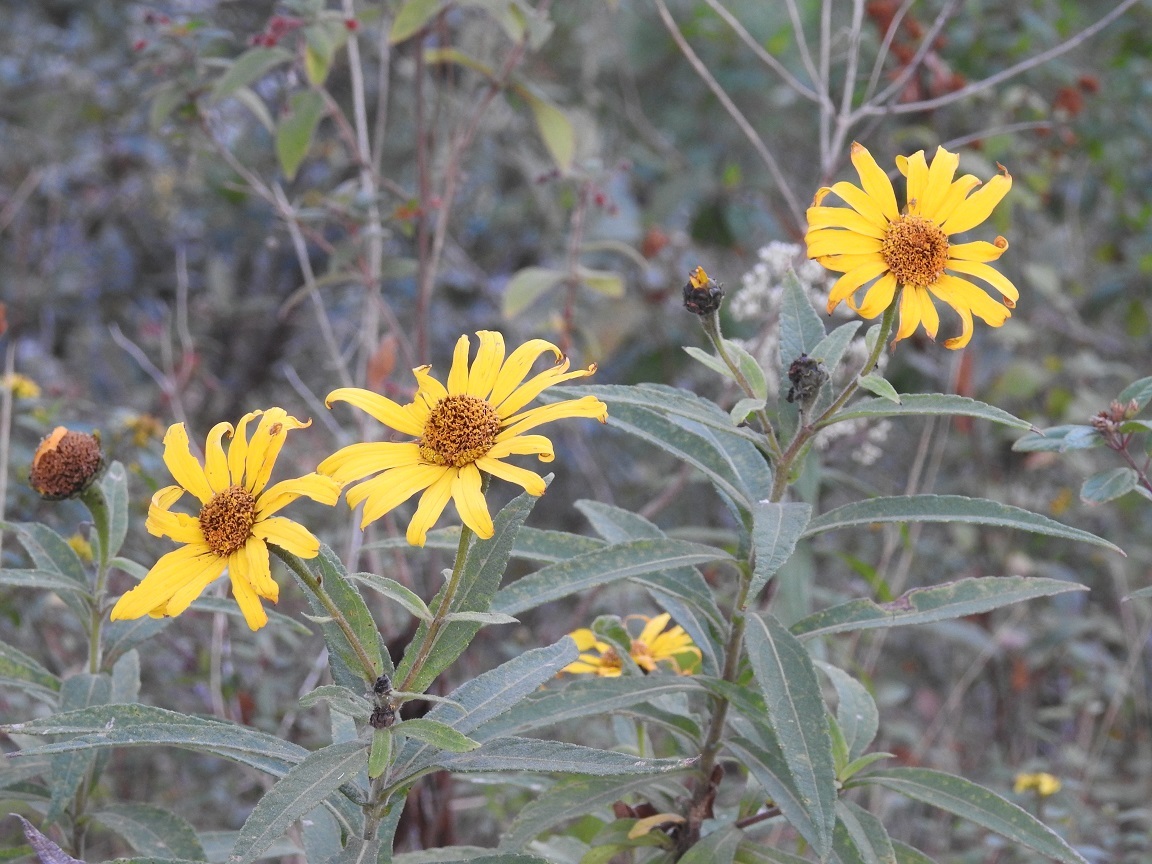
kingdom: Plantae
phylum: Tracheophyta
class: Magnoliopsida
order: Asterales
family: Asteraceae
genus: Tithonia
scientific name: Tithonia longiradiata
